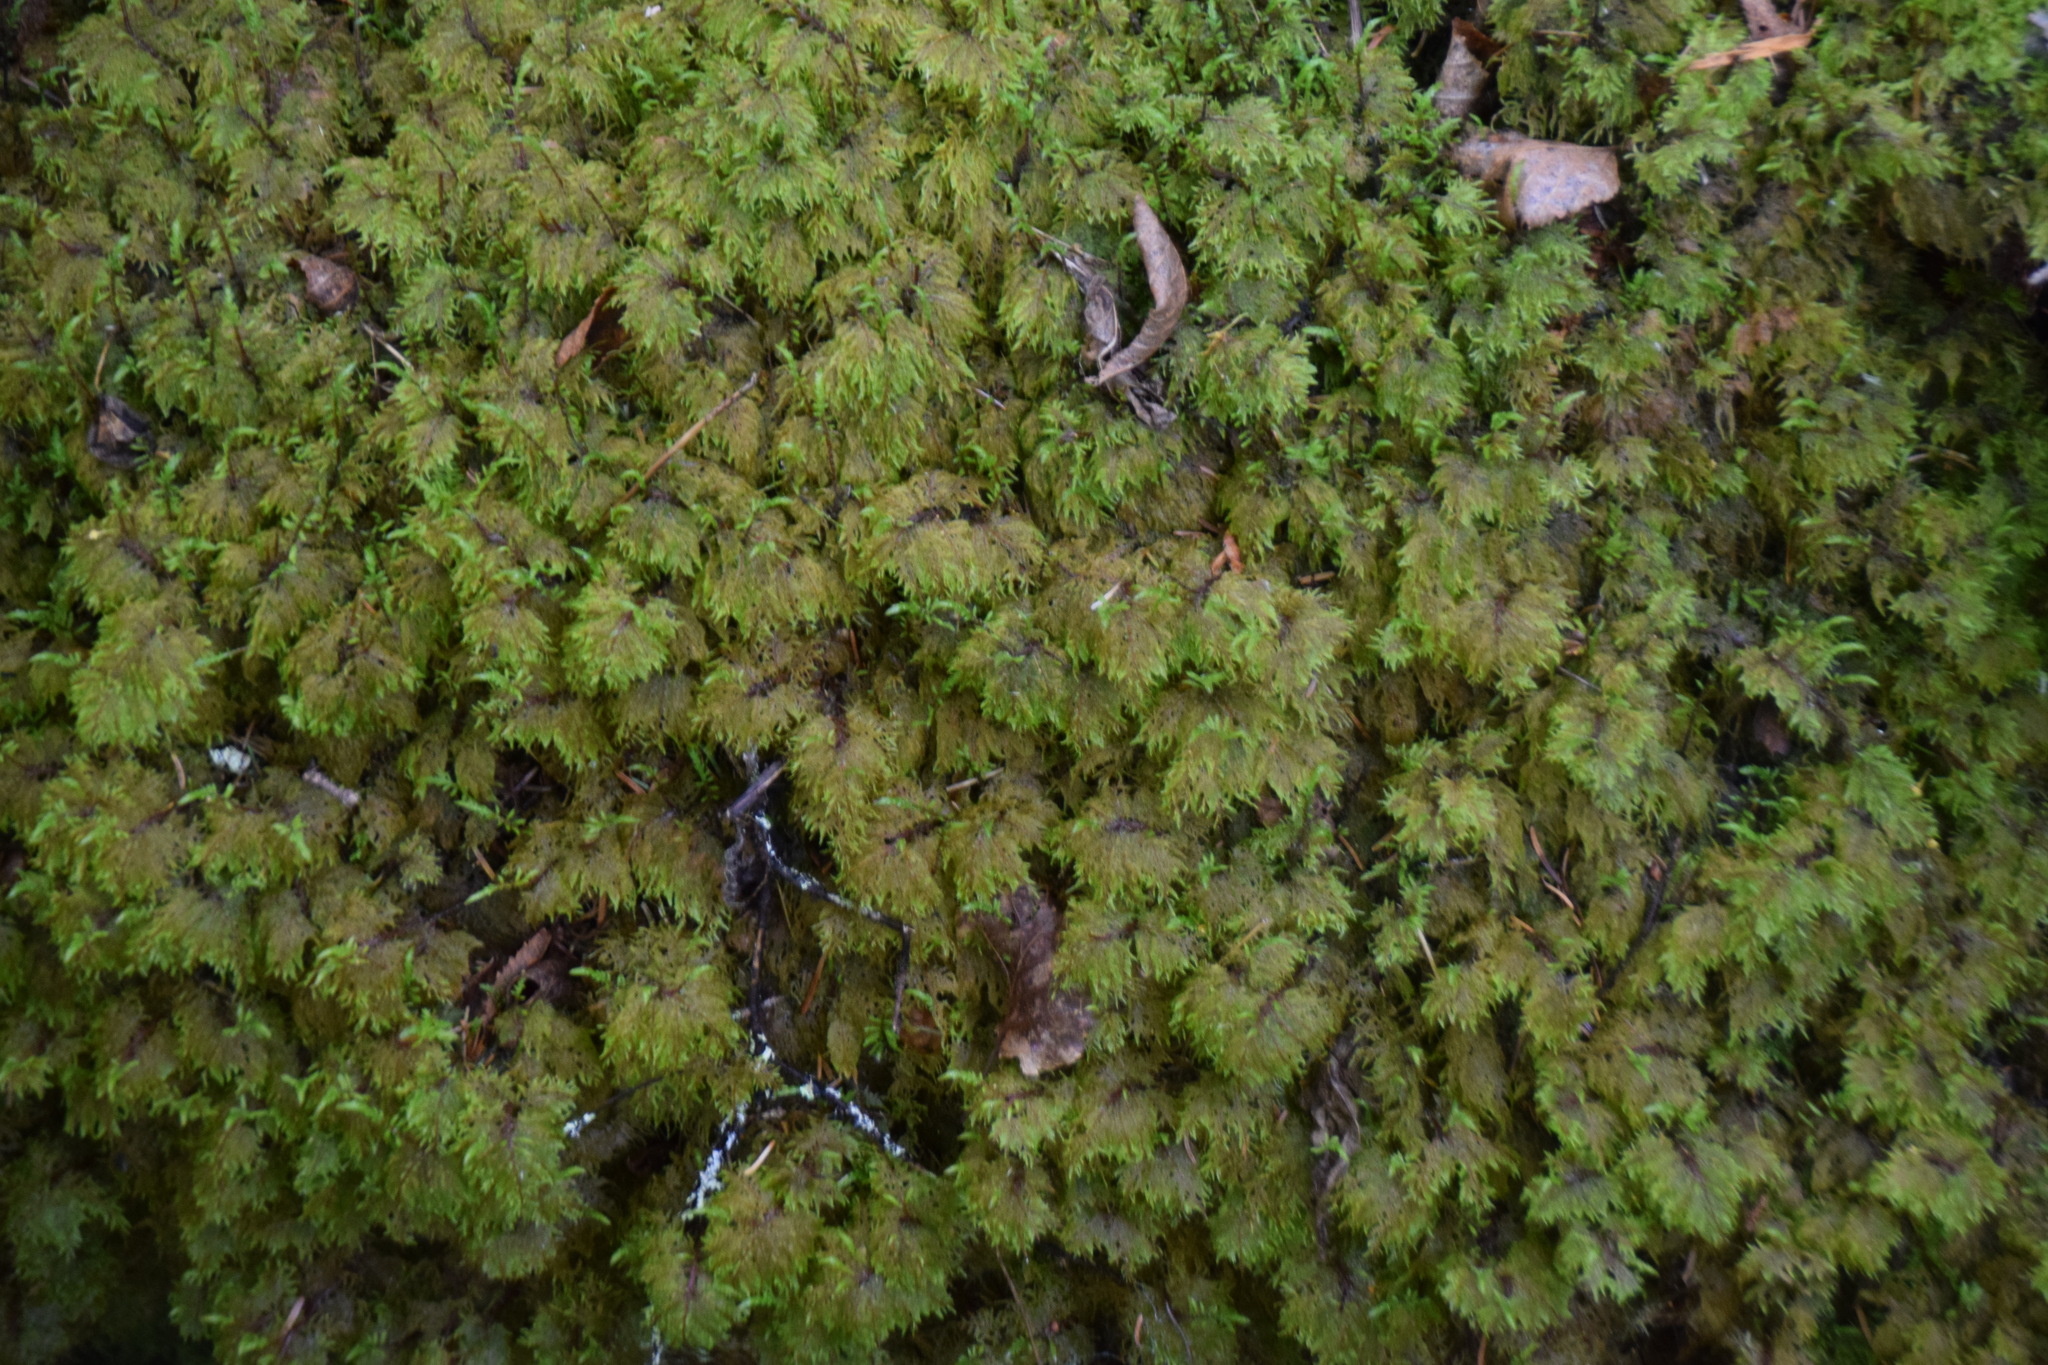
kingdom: Plantae
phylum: Bryophyta
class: Bryopsida
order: Hypnales
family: Hylocomiaceae
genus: Hylocomium
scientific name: Hylocomium splendens
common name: Stairstep moss
